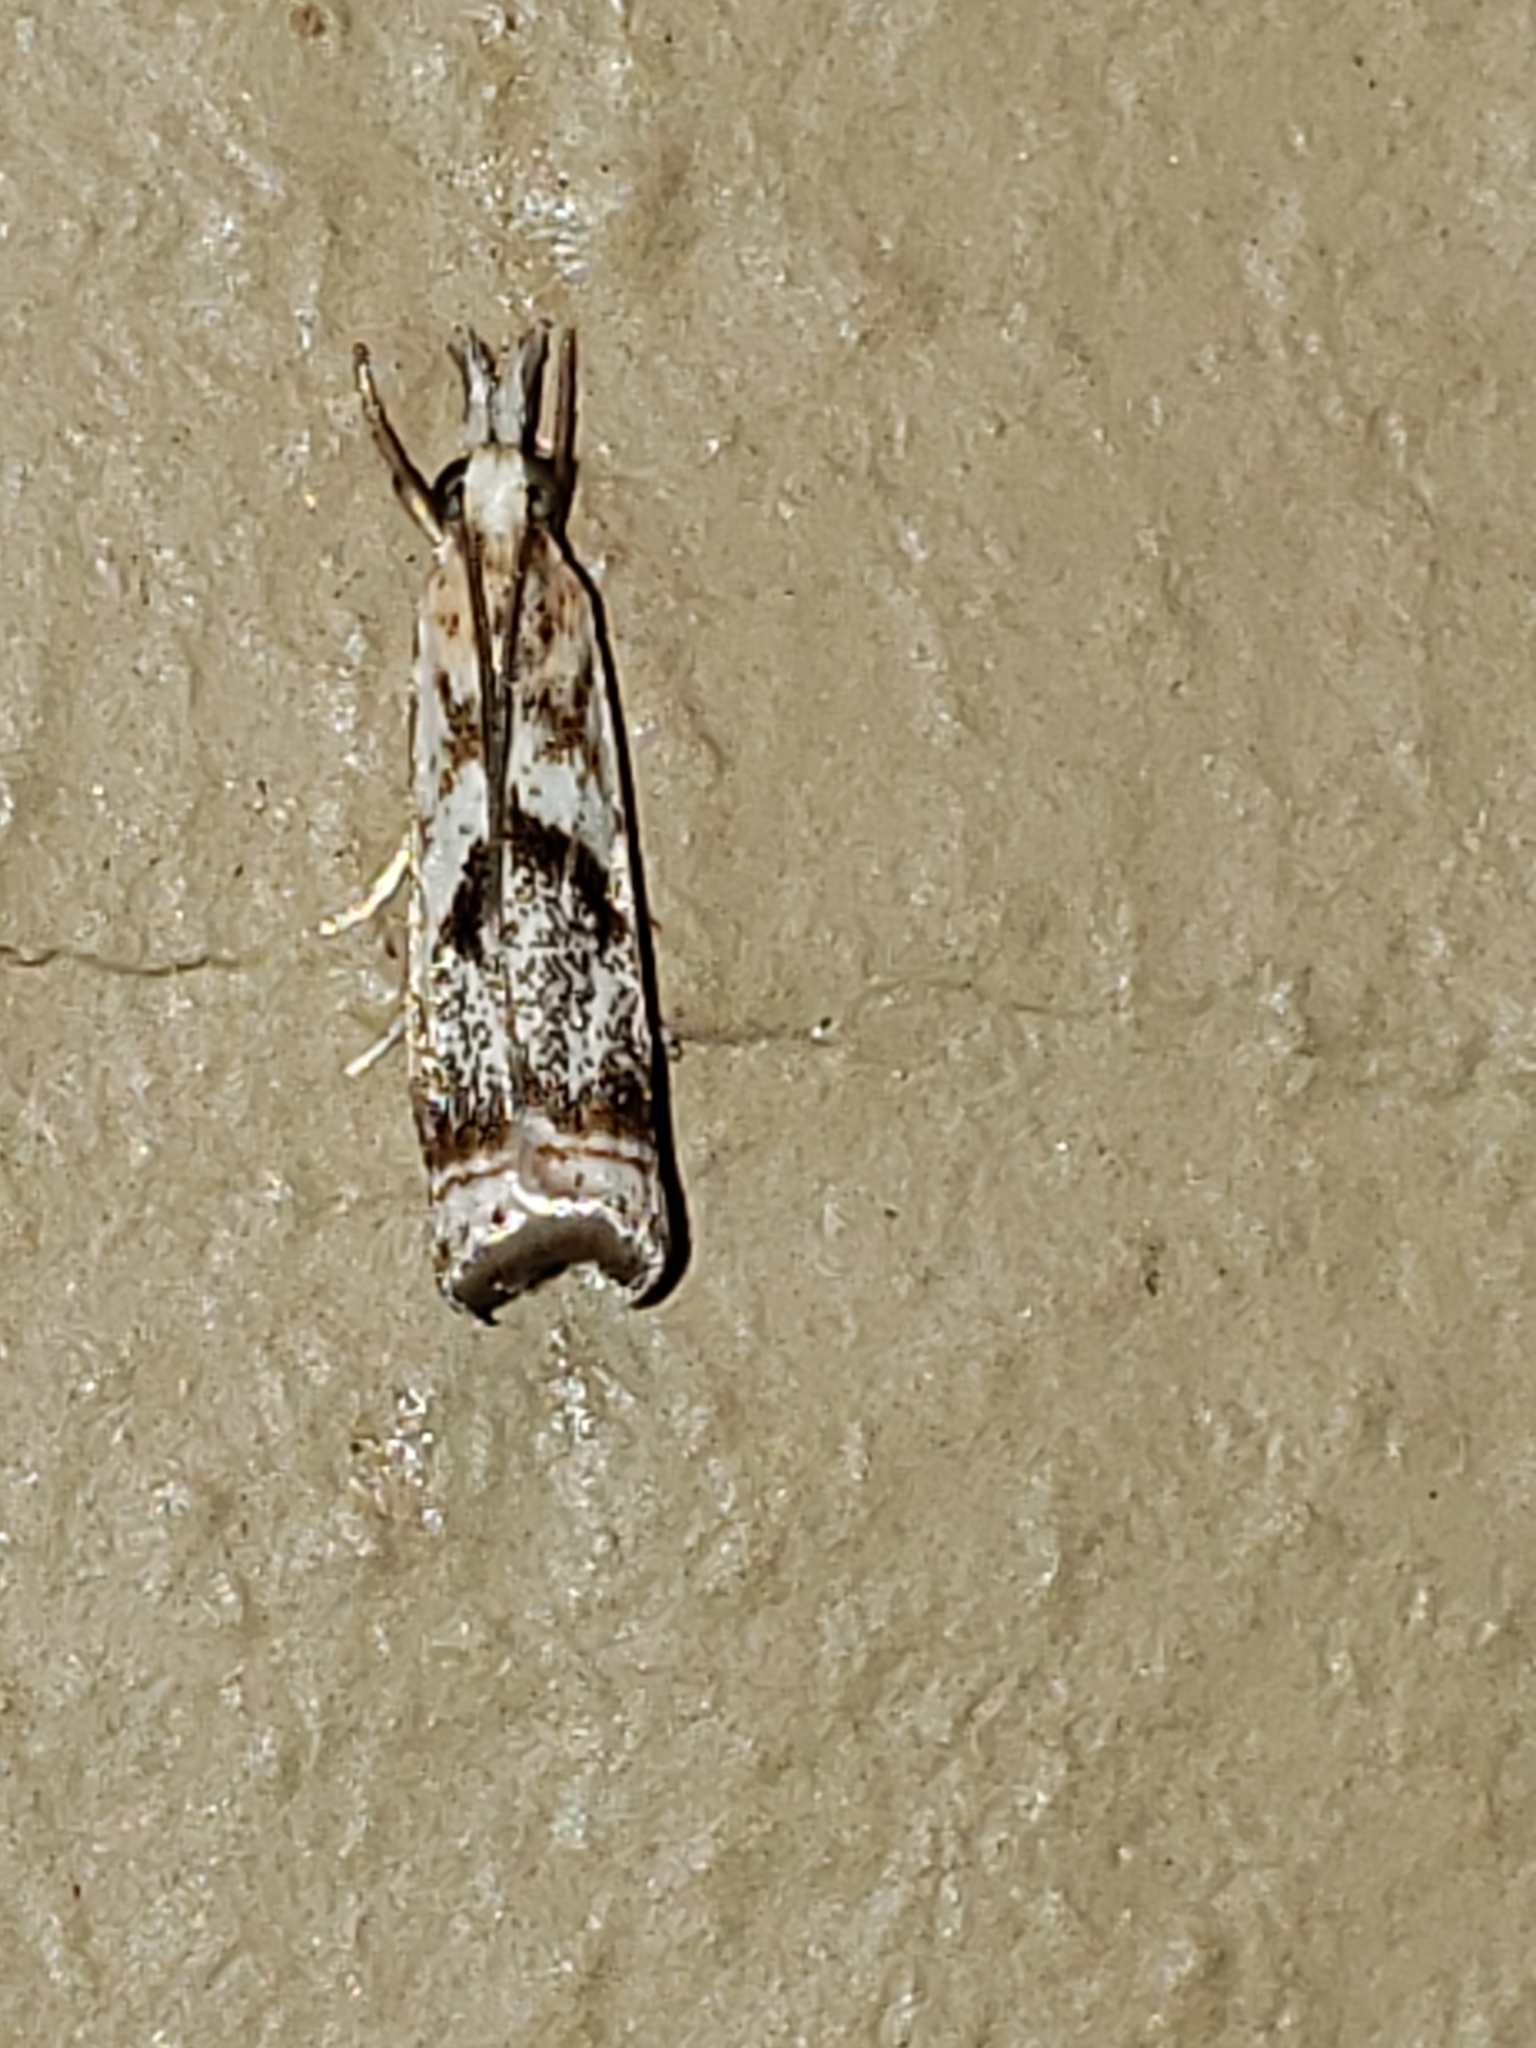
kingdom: Animalia
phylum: Arthropoda
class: Insecta
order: Lepidoptera
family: Crambidae
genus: Microcrambus
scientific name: Microcrambus elegans
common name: Elegant grass-veneer
